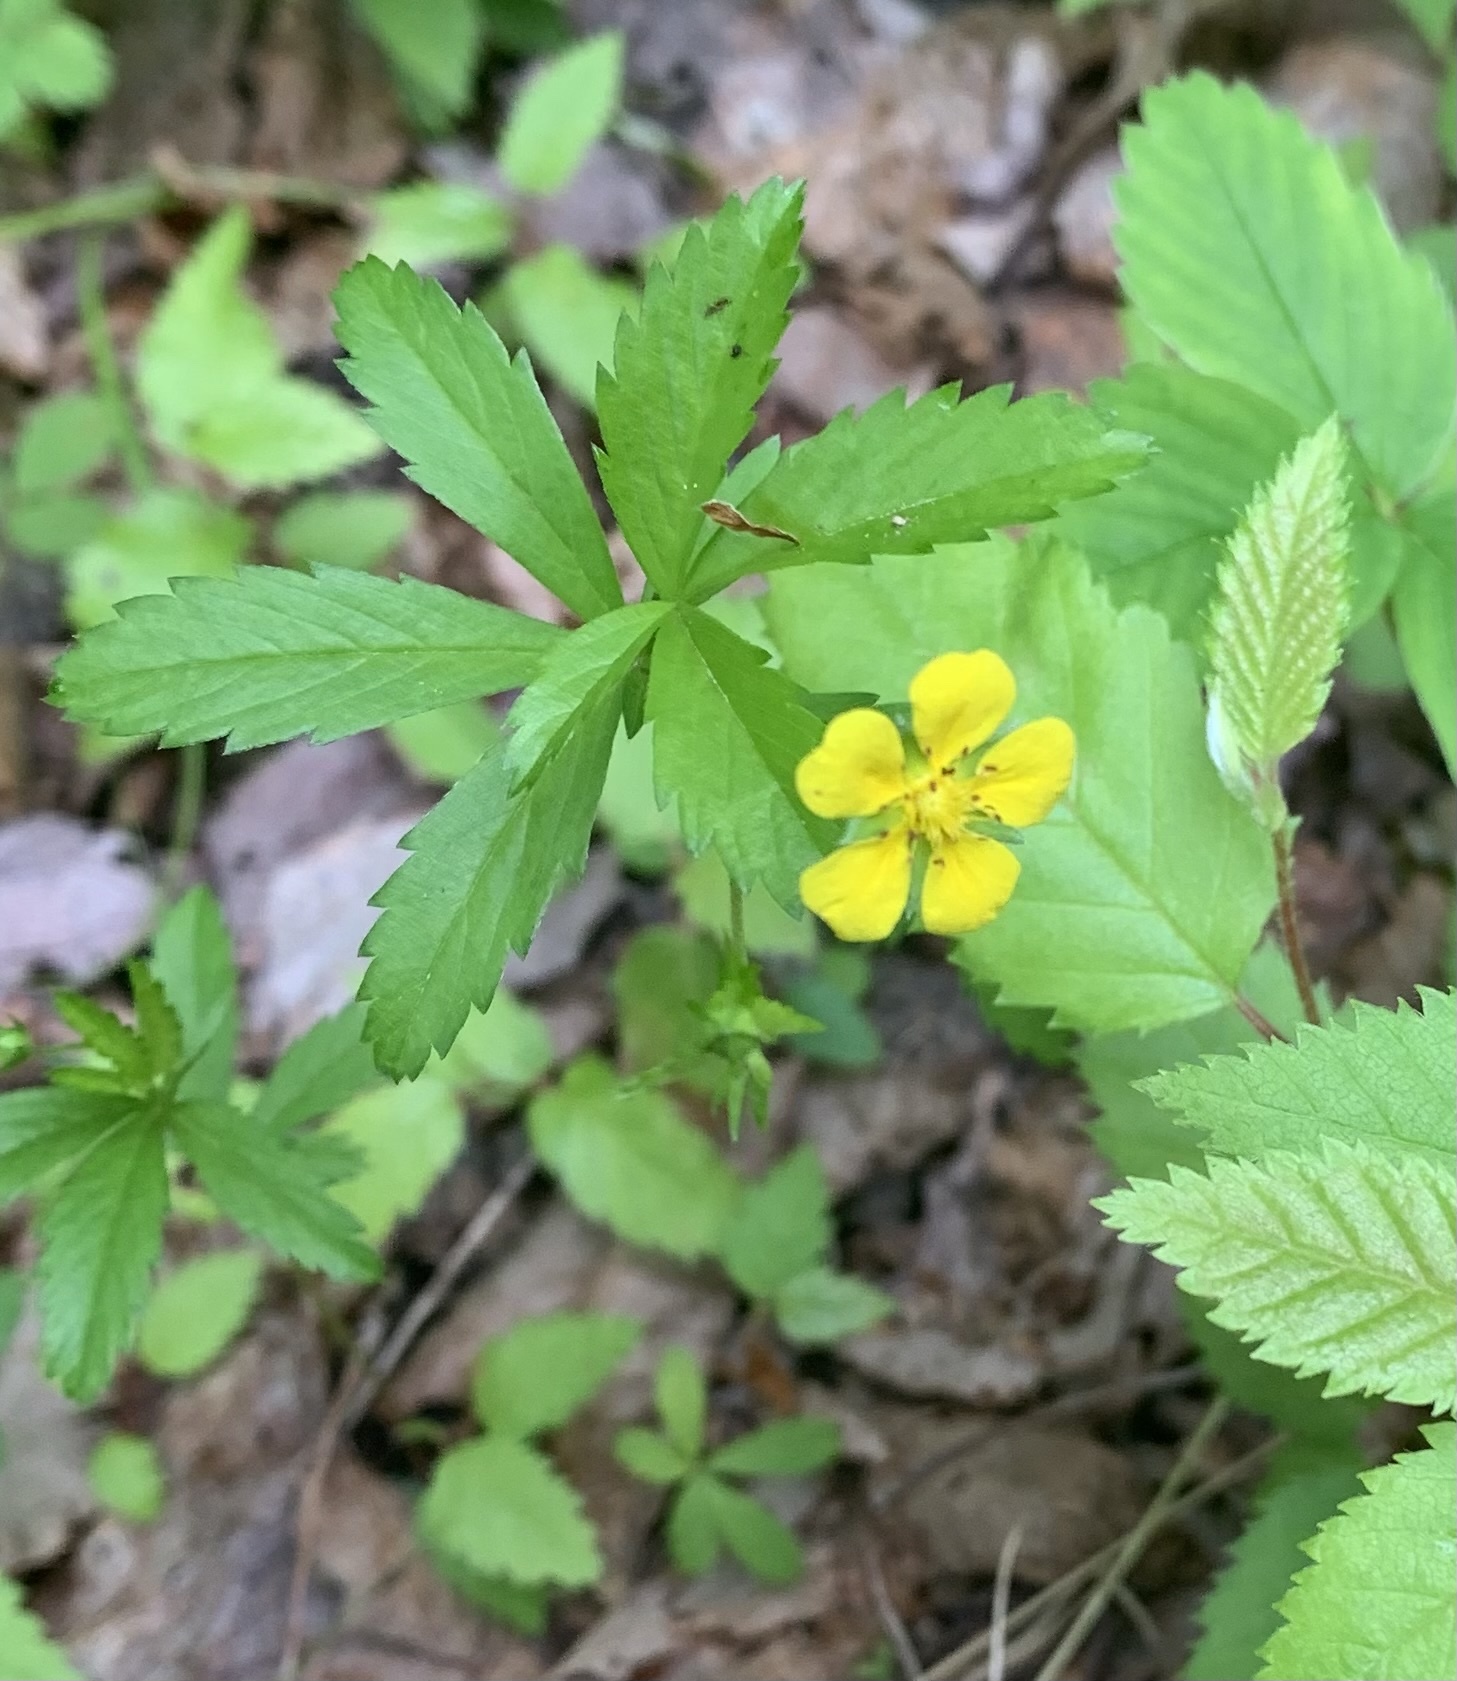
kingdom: Plantae
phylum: Tracheophyta
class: Magnoliopsida
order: Rosales
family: Rosaceae
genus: Potentilla
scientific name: Potentilla simplex
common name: Old field cinquefoil
